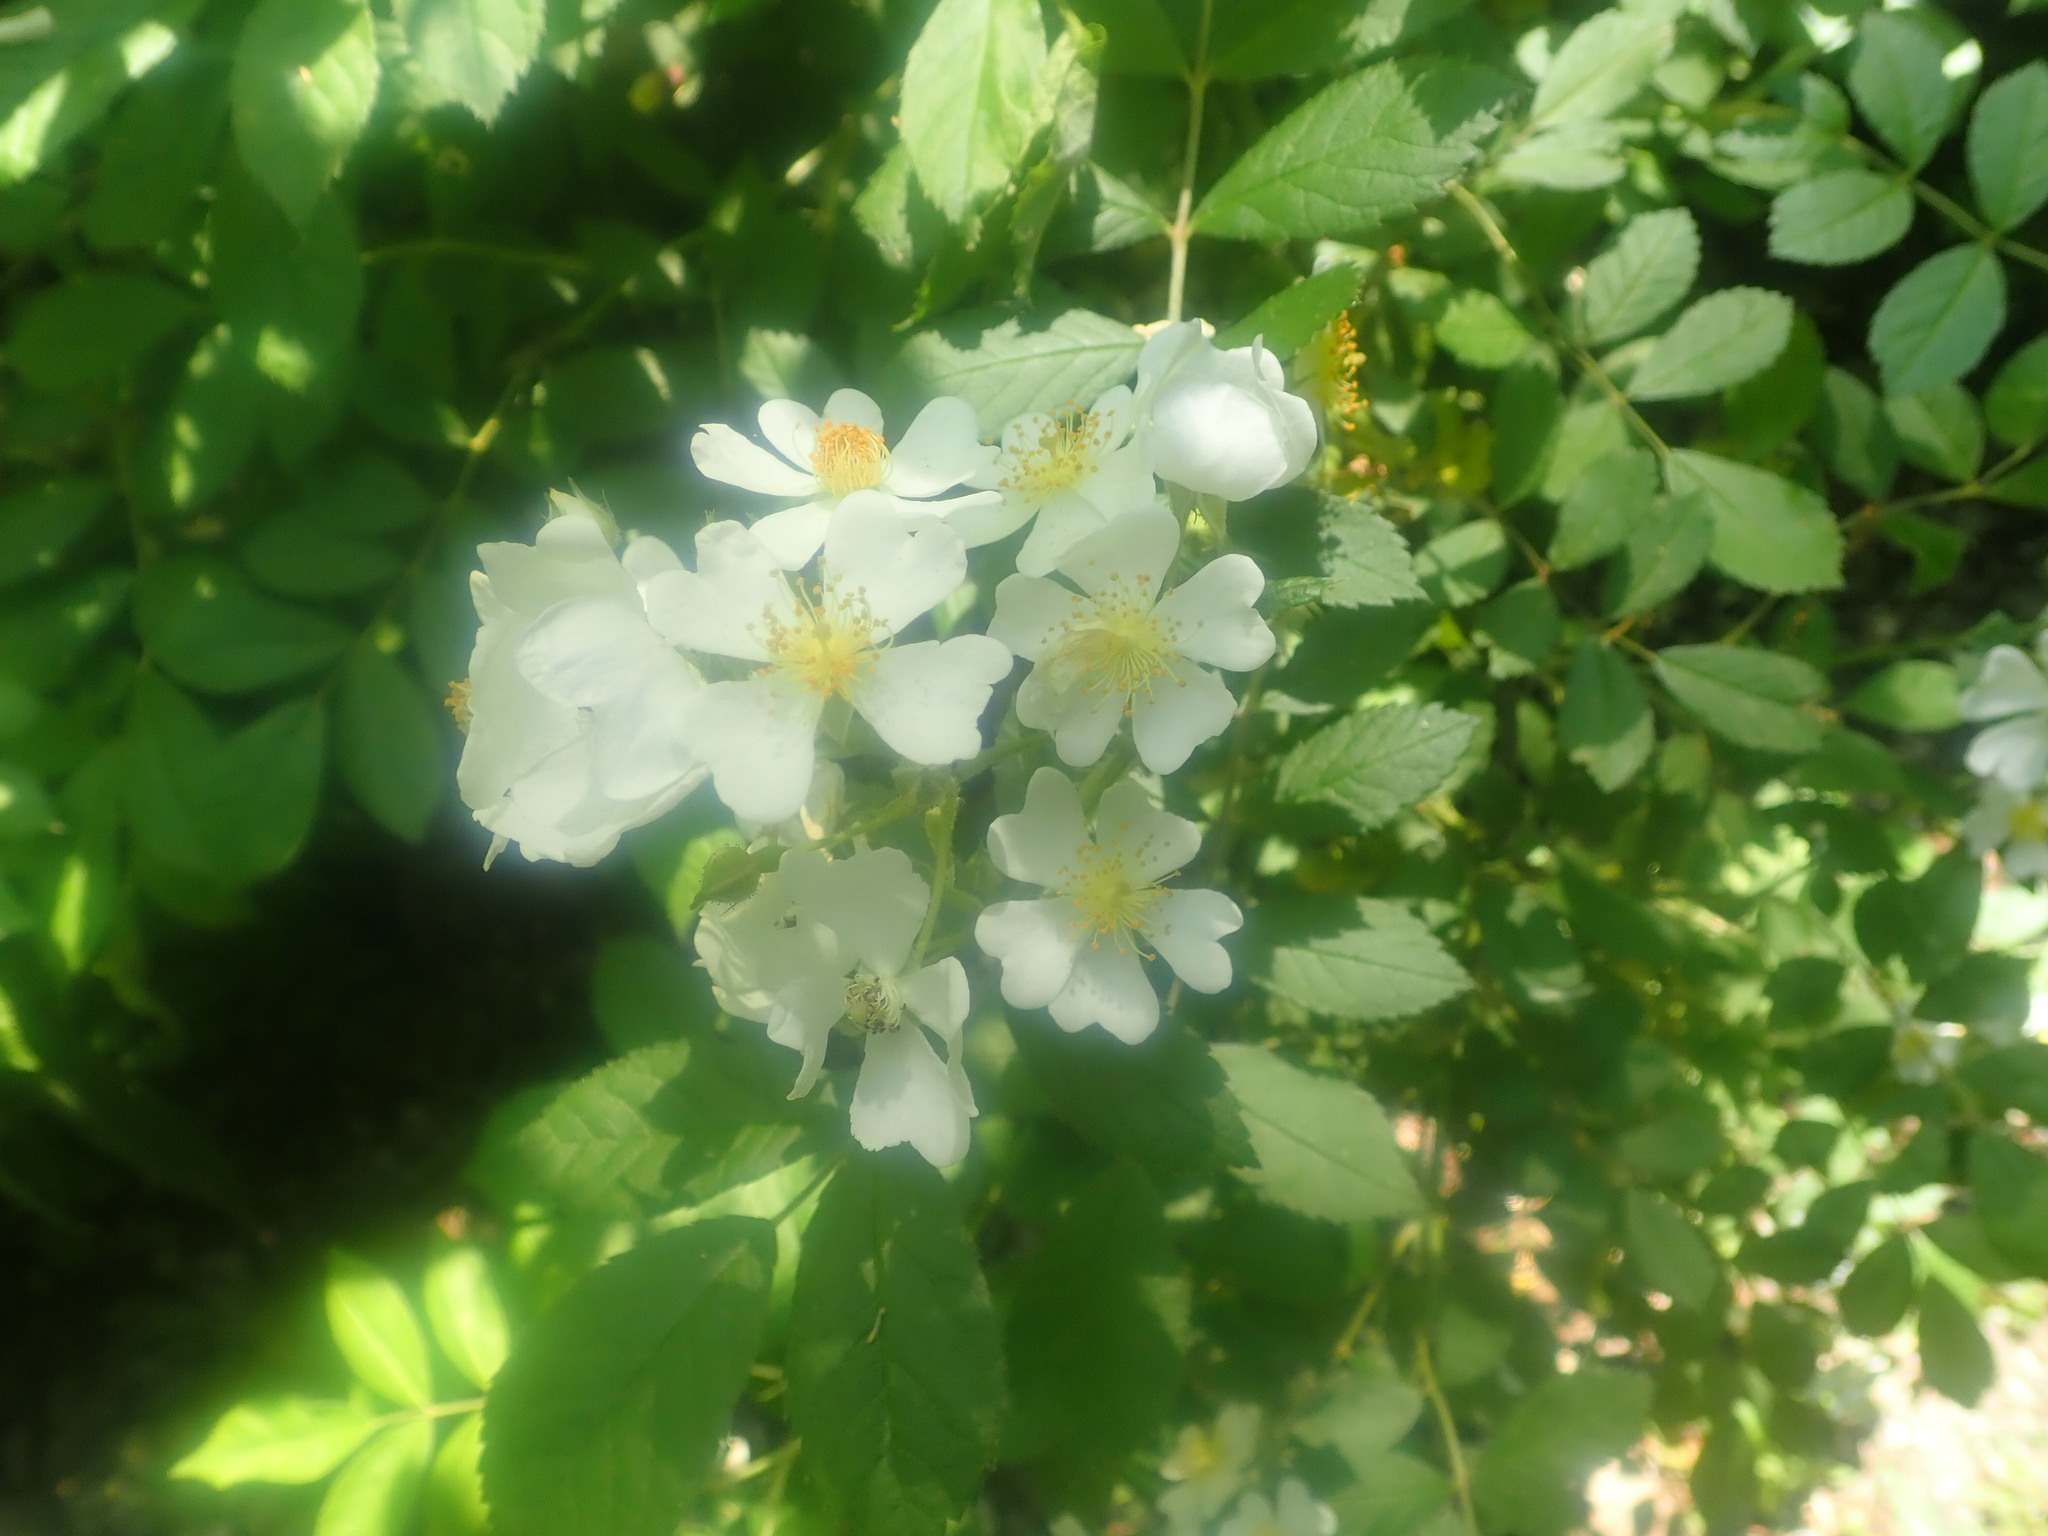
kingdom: Plantae
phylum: Tracheophyta
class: Magnoliopsida
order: Rosales
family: Rosaceae
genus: Rosa
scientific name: Rosa multiflora
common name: Multiflora rose
